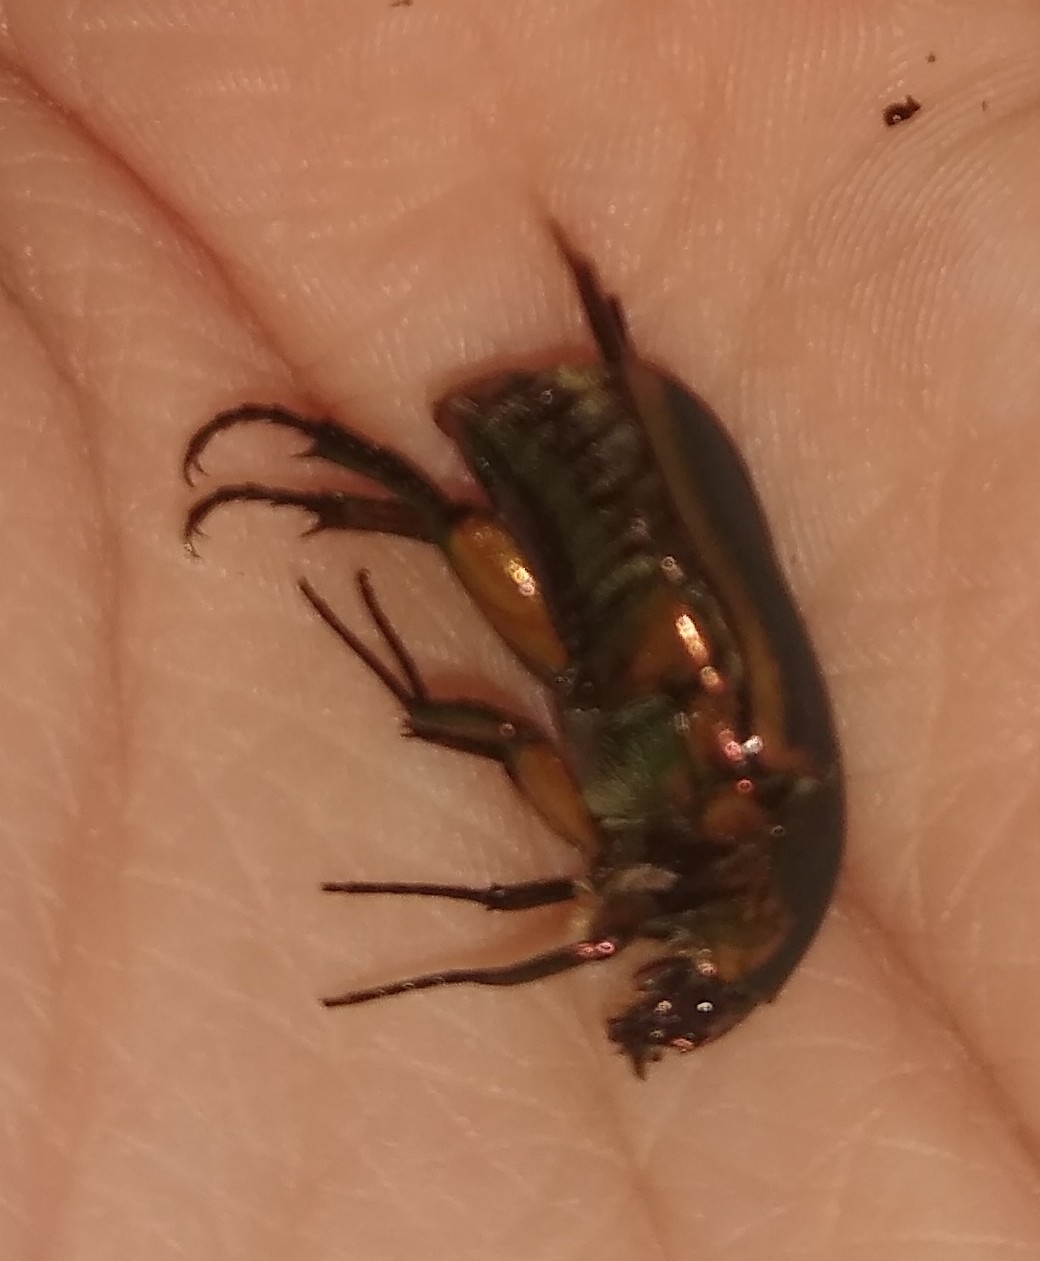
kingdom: Animalia
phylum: Arthropoda
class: Insecta
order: Coleoptera
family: Scarabaeidae
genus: Cotinis
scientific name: Cotinis nitida
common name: Common green june beetle
